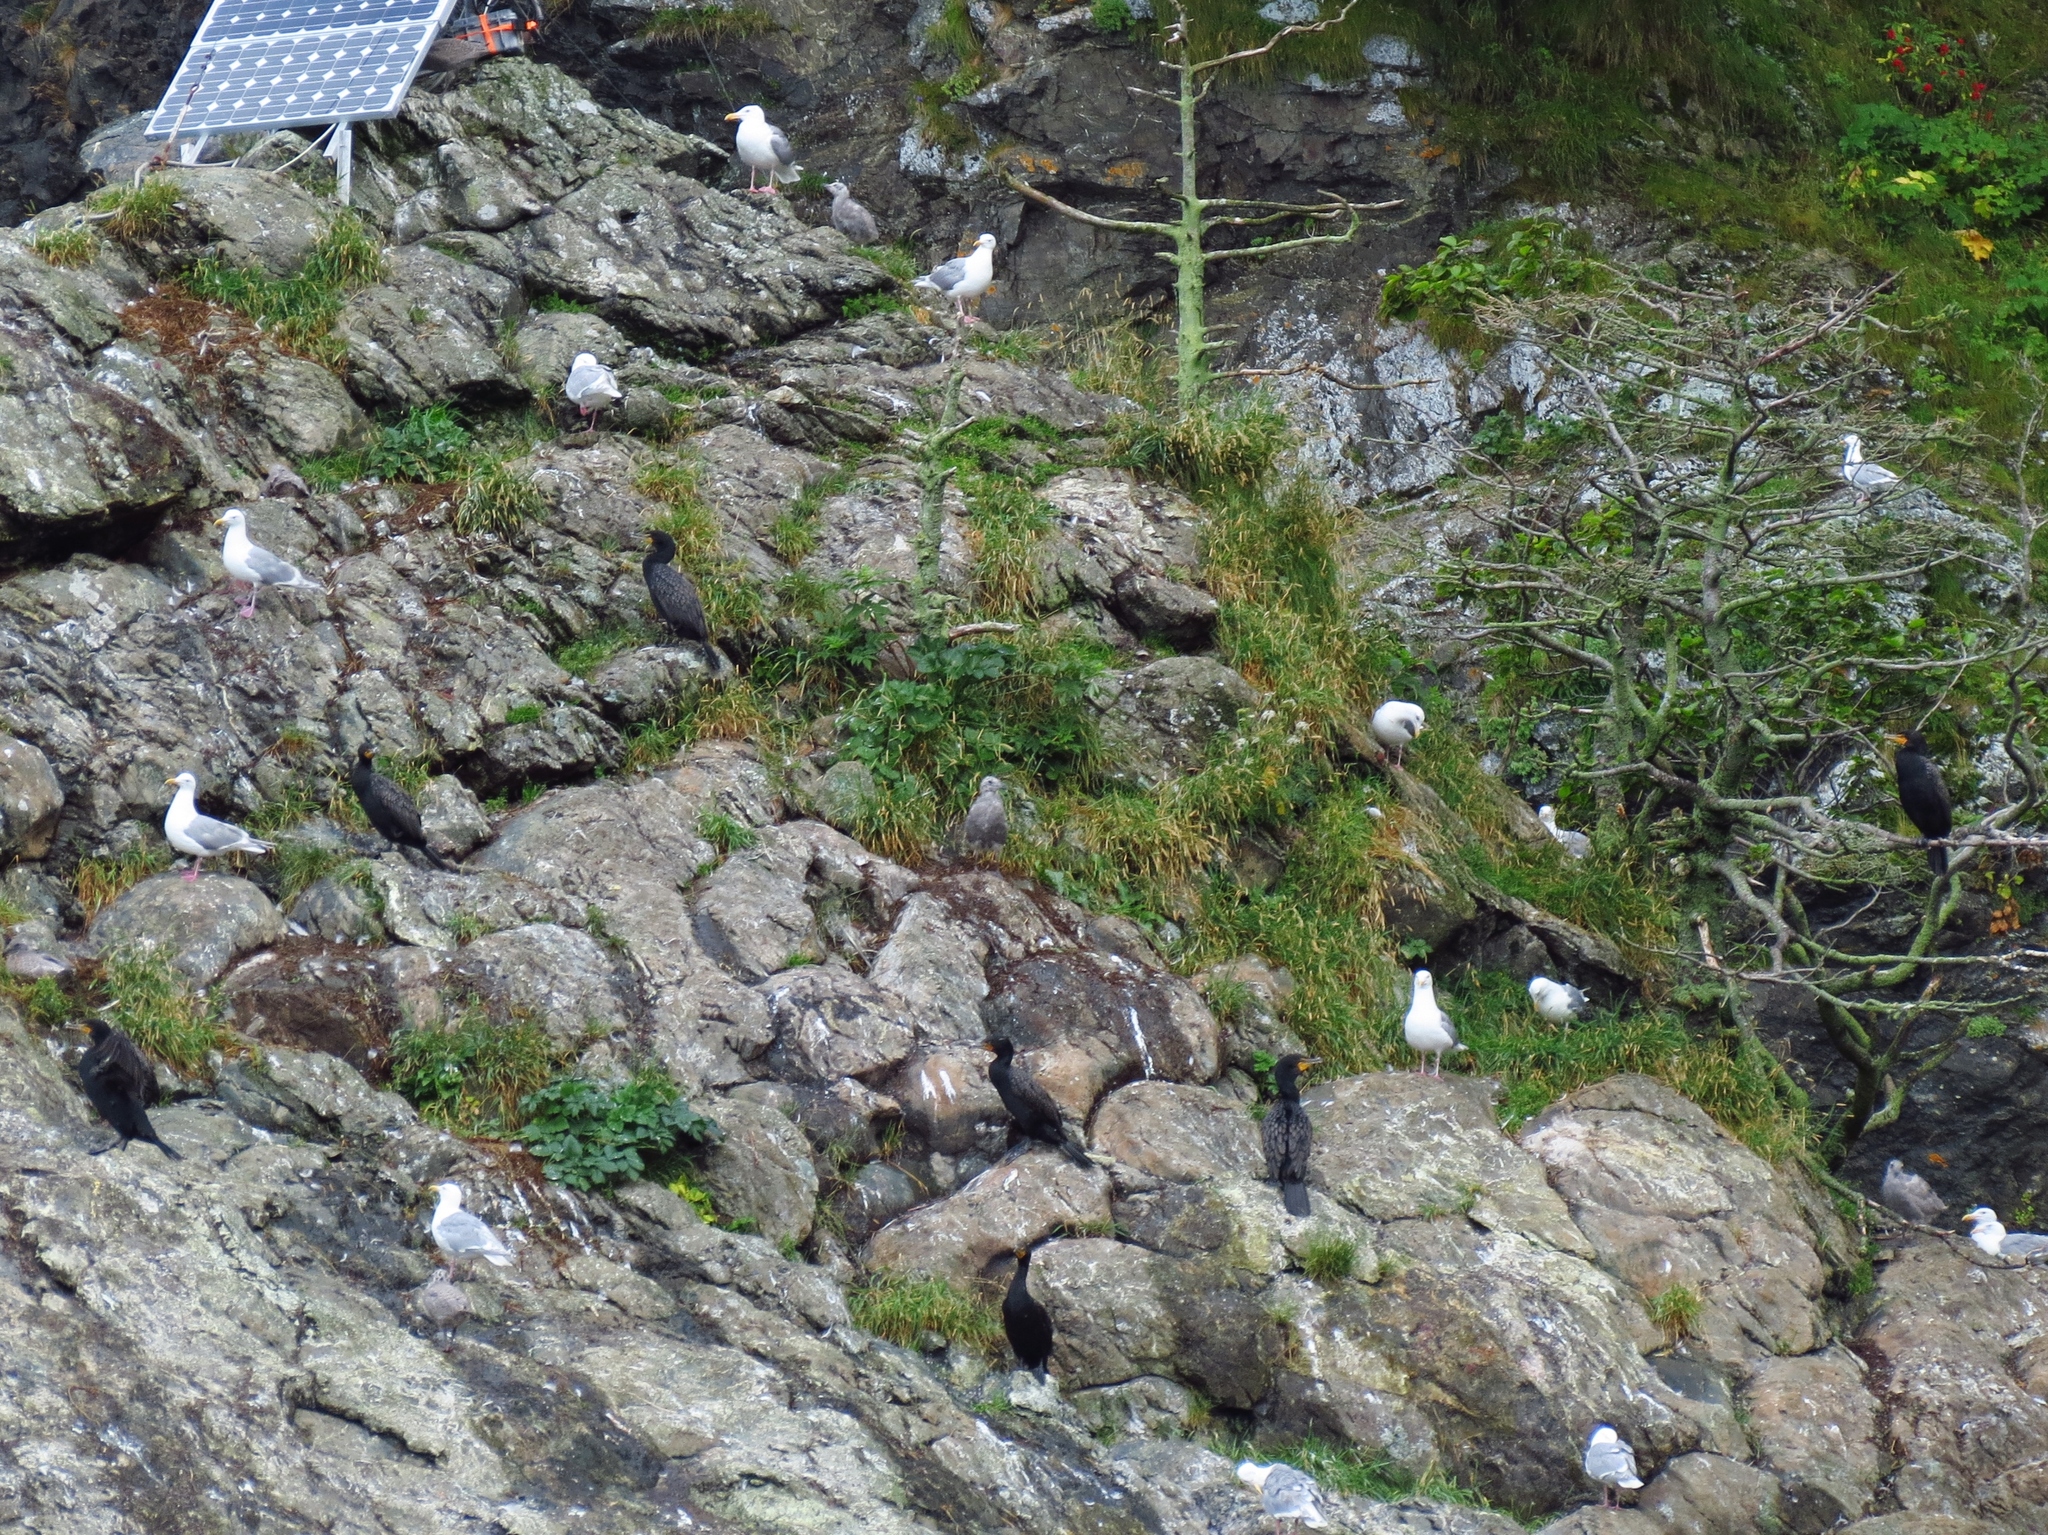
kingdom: Animalia
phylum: Chordata
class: Aves
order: Suliformes
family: Phalacrocoracidae
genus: Phalacrocorax
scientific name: Phalacrocorax auritus
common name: Double-crested cormorant
